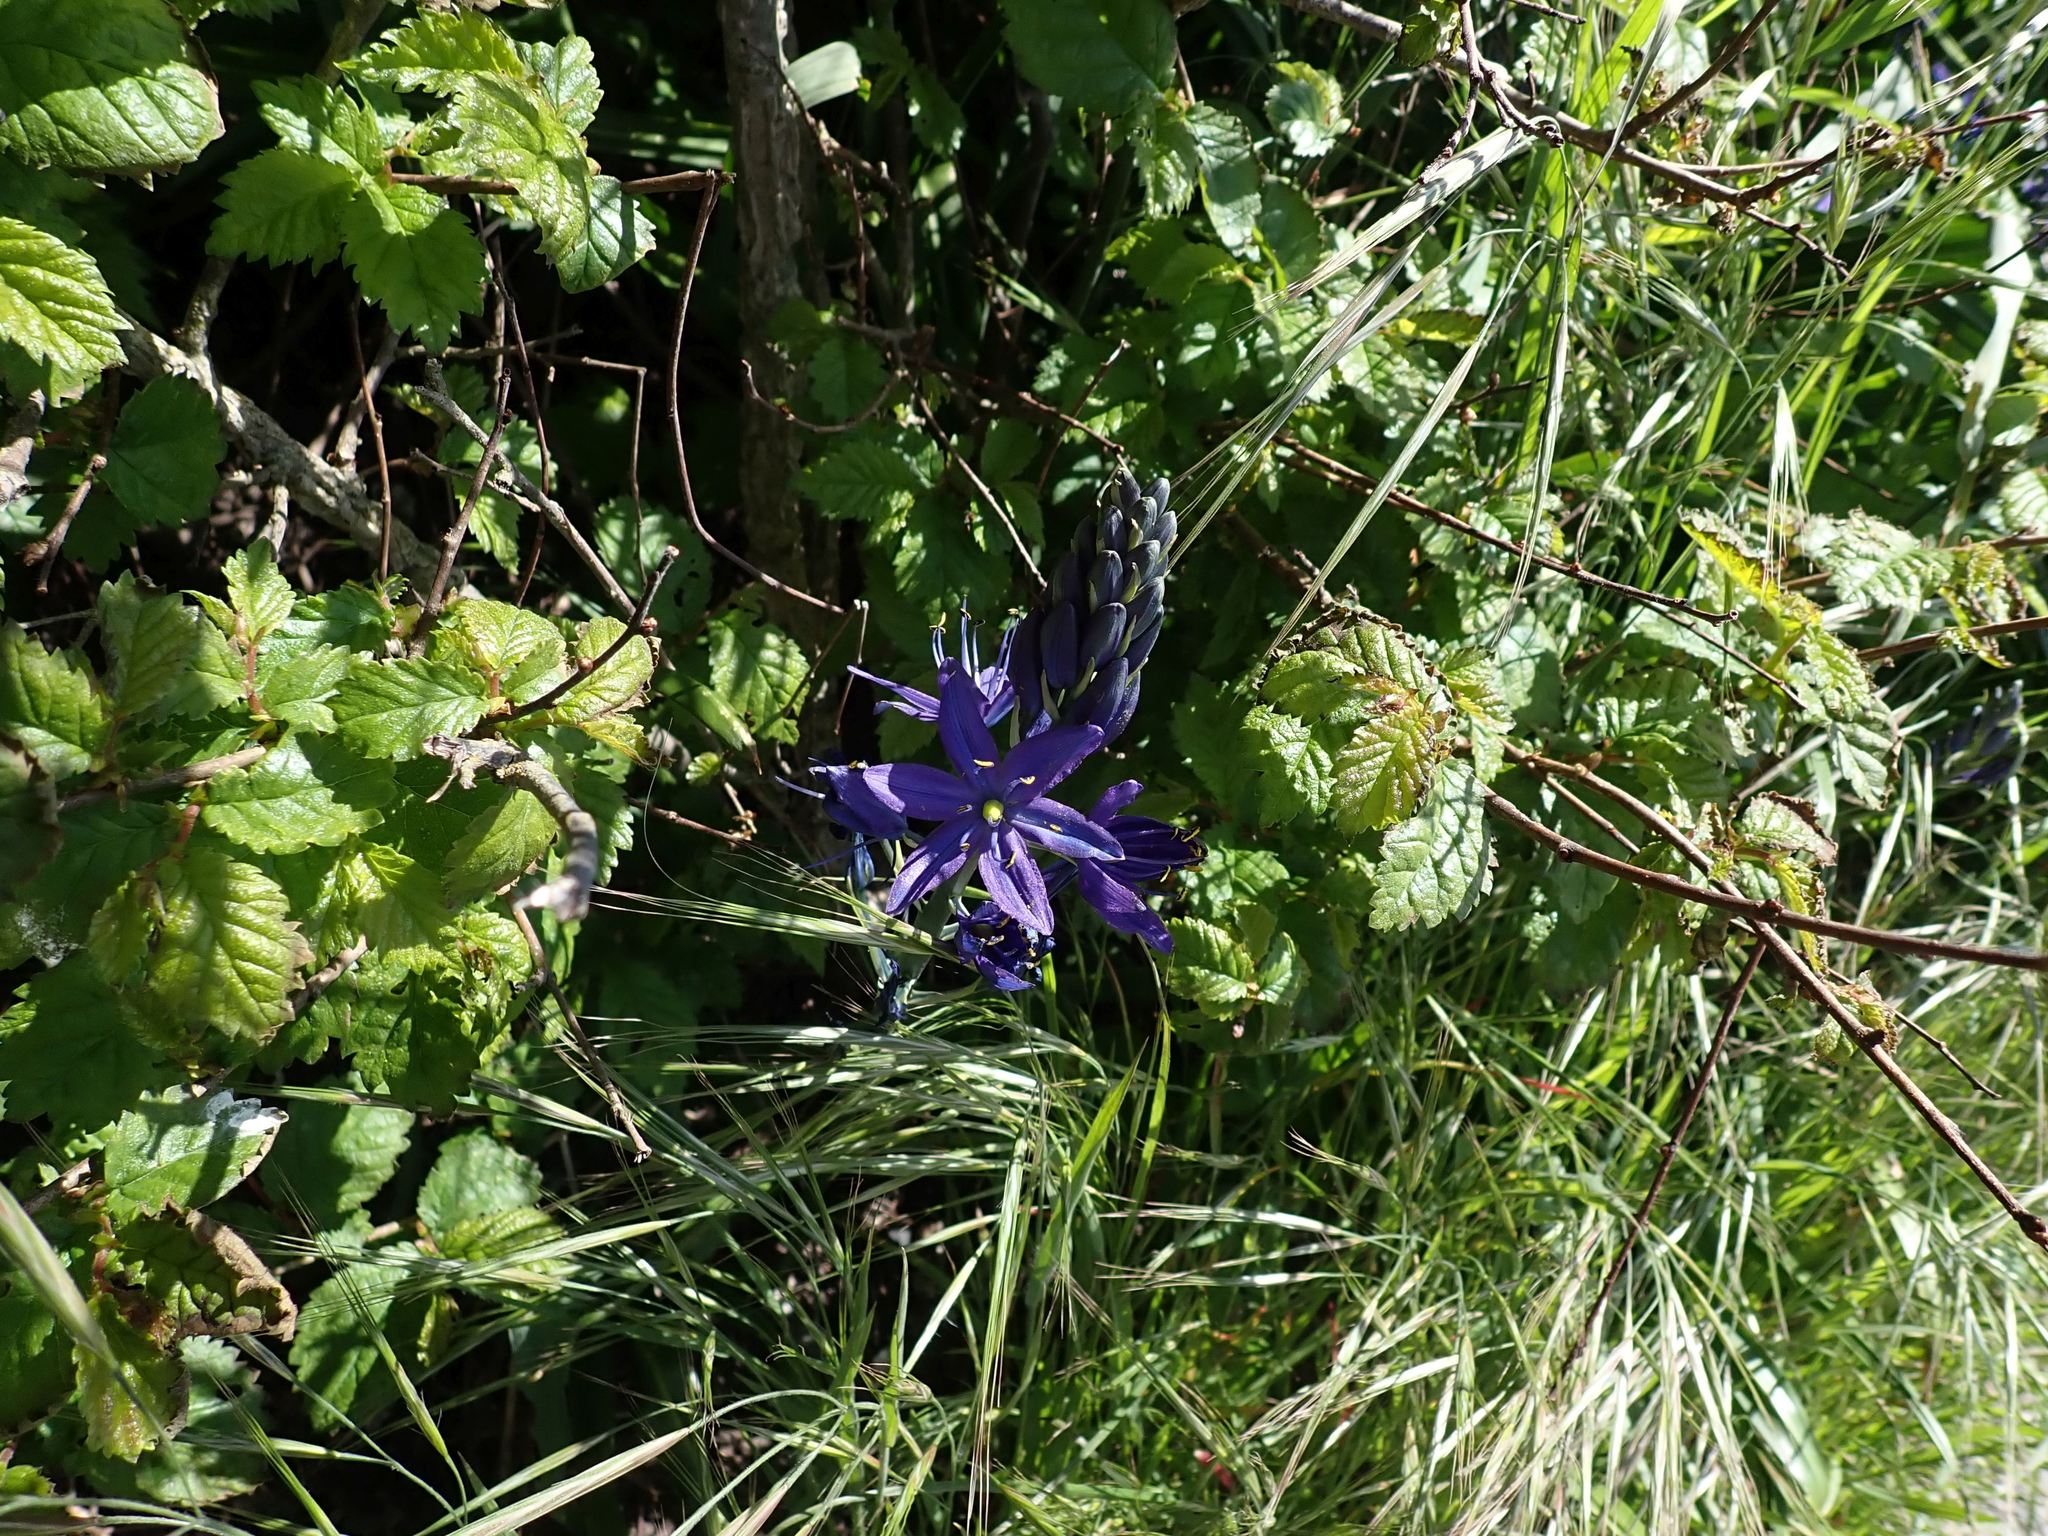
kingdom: Plantae
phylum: Tracheophyta
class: Liliopsida
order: Asparagales
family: Asparagaceae
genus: Camassia
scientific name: Camassia leichtlinii
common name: Leichtlin's camas
